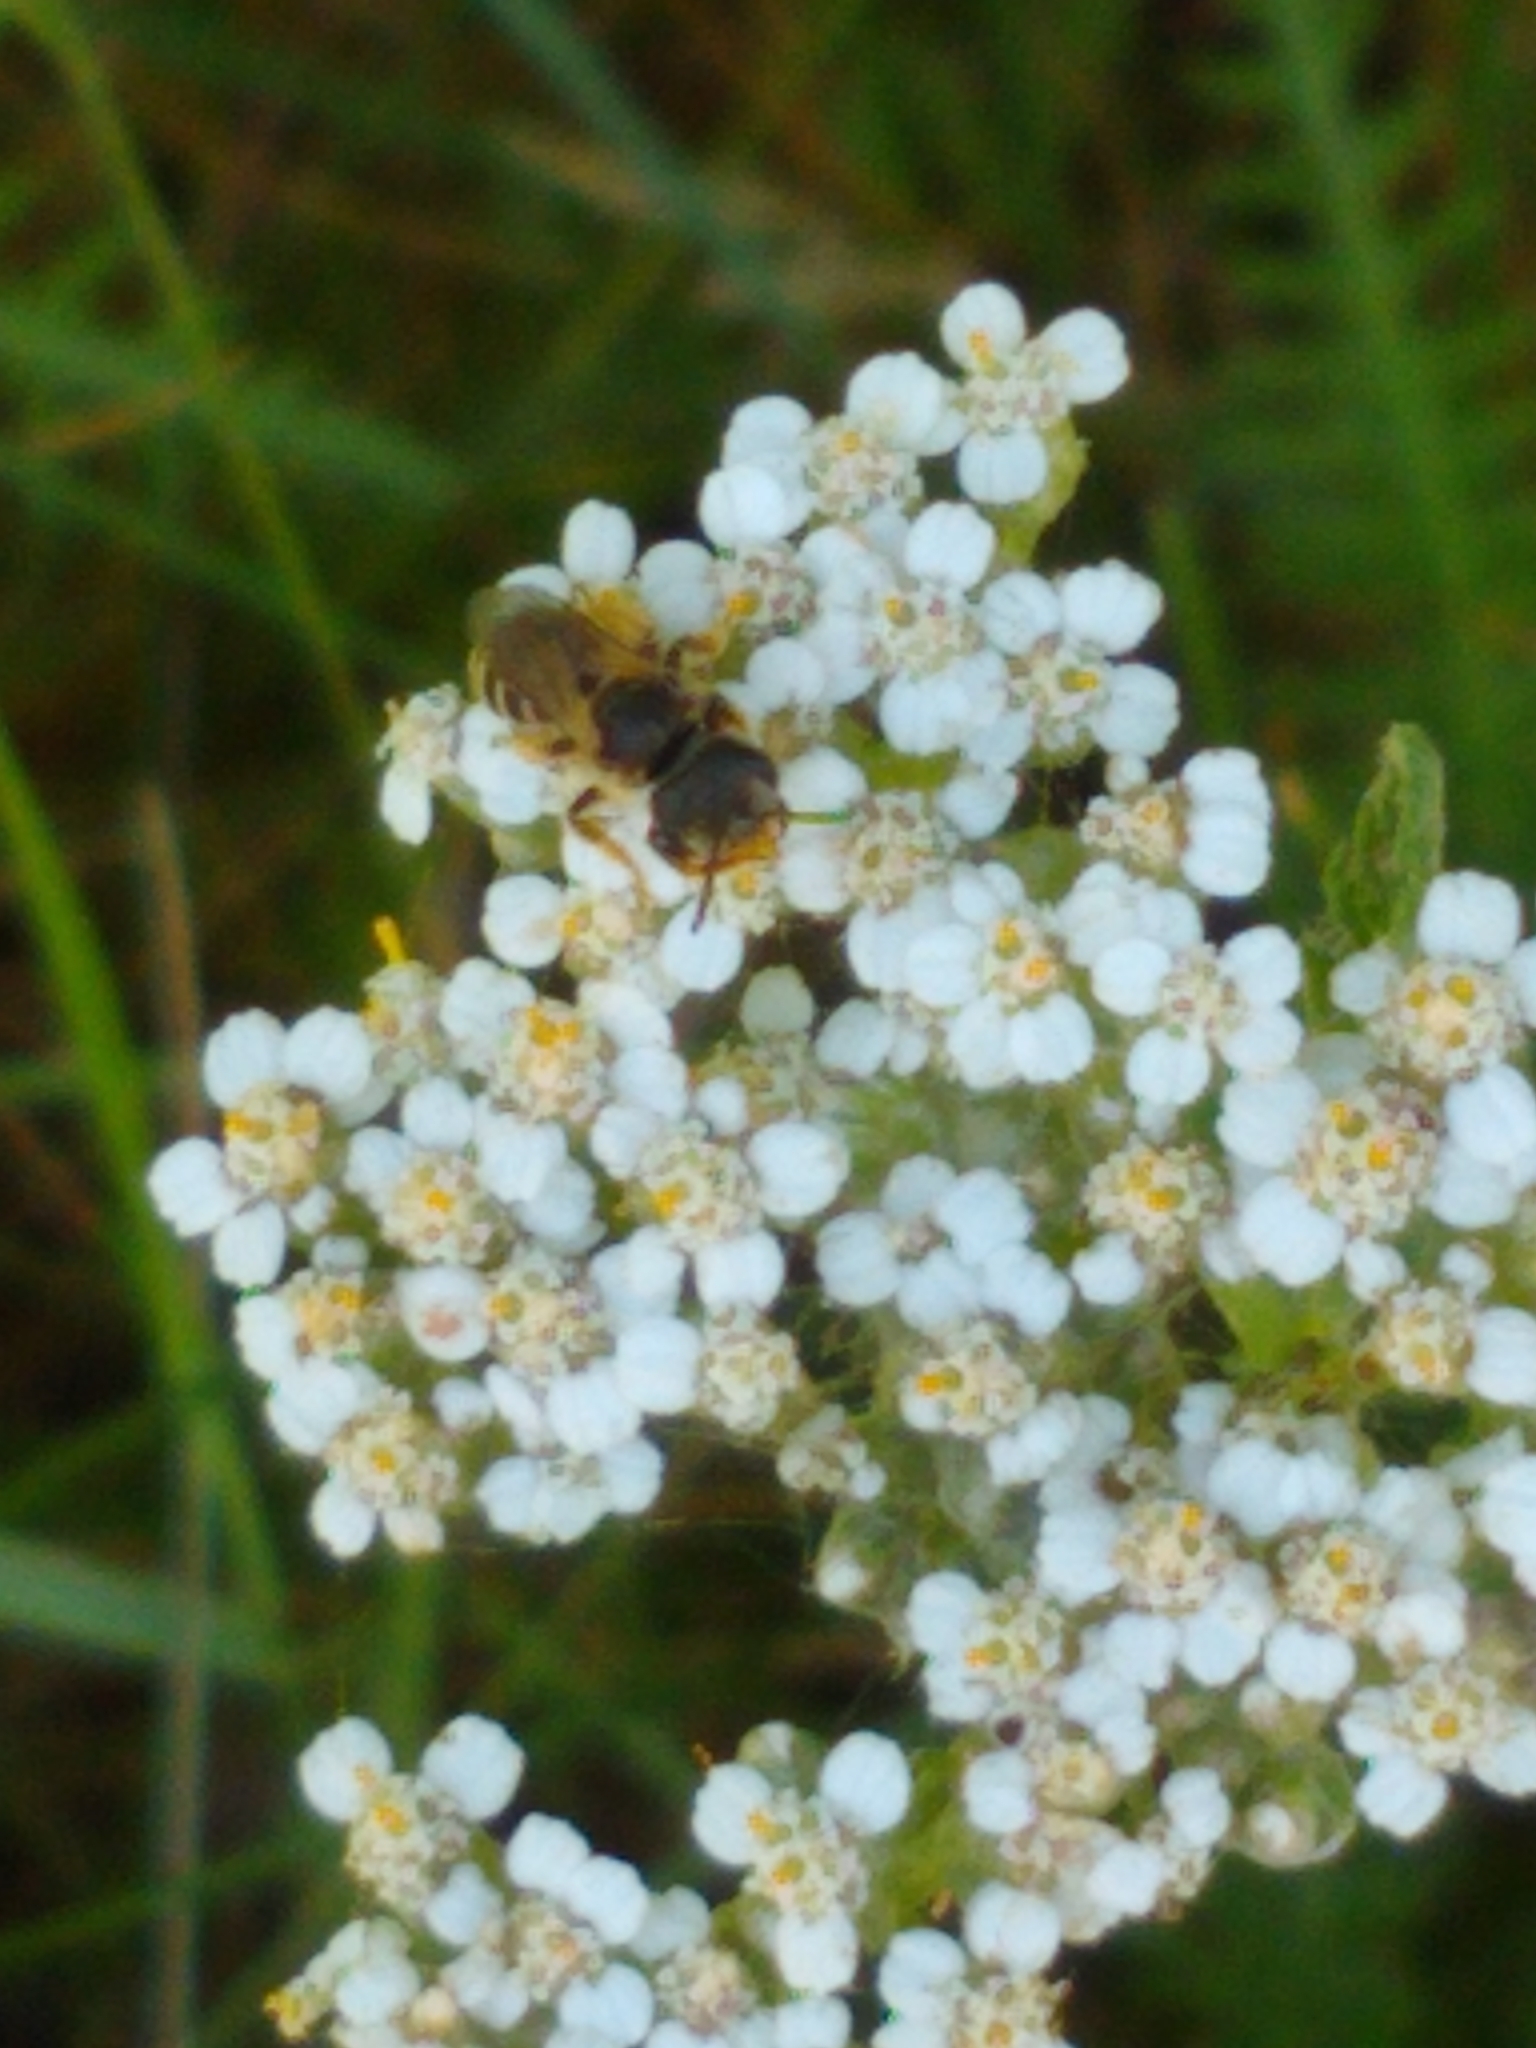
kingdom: Animalia
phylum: Arthropoda
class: Insecta
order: Hymenoptera
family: Halictidae
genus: Halictus
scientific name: Halictus ligatus
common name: Ligated furrow bee
